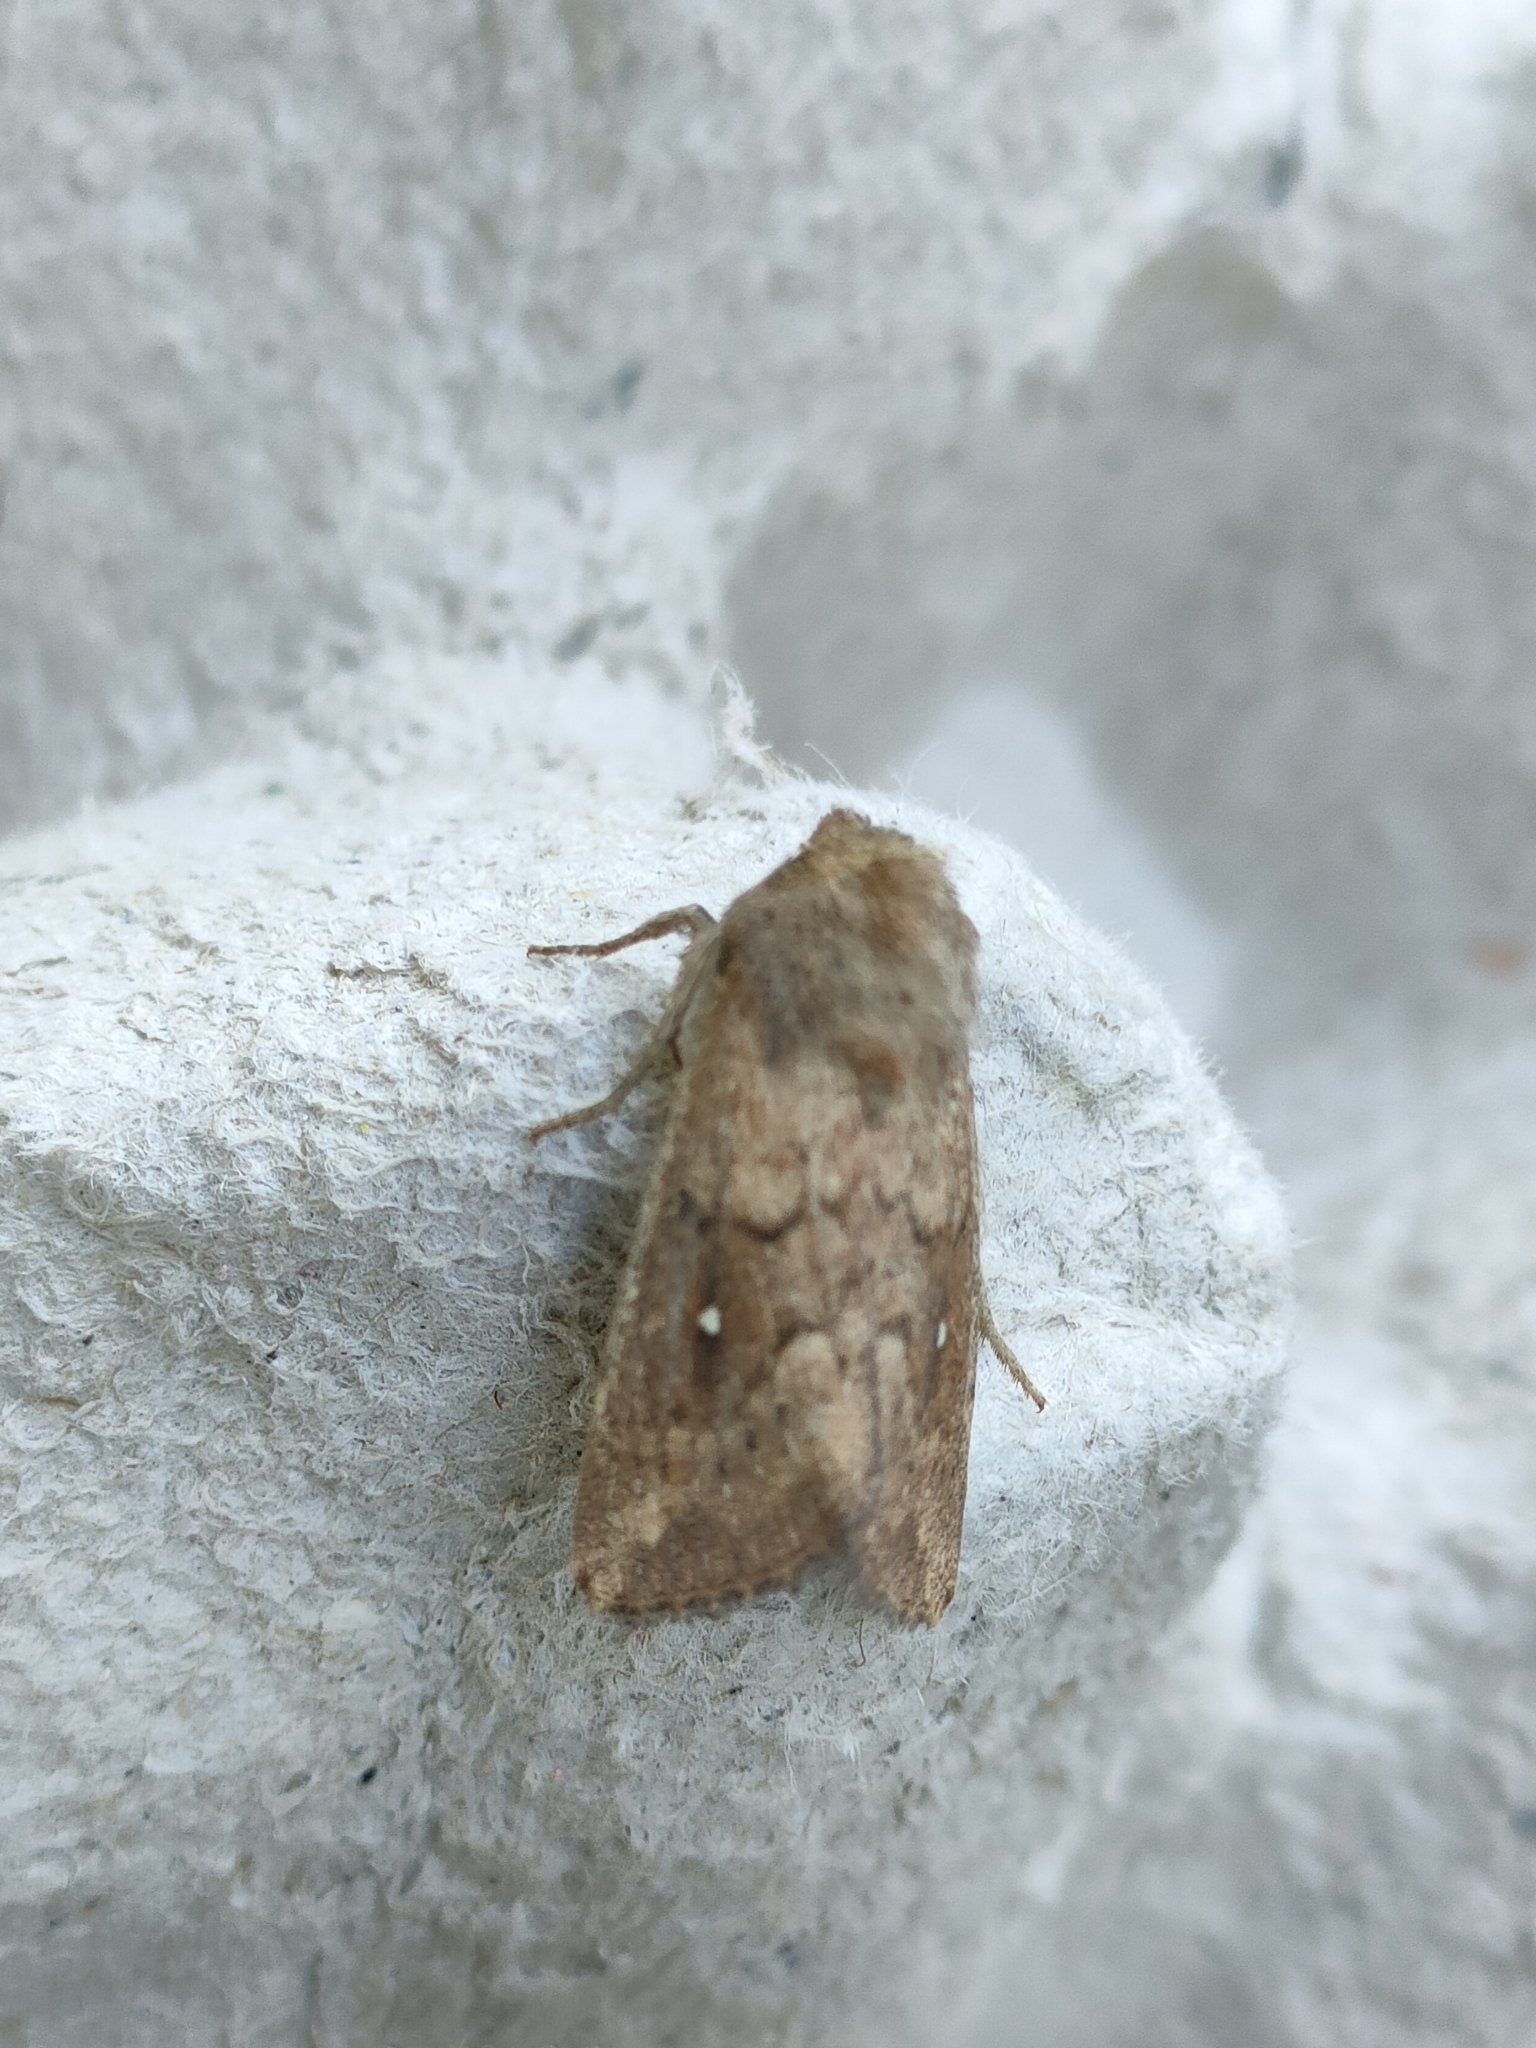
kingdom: Animalia
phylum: Arthropoda
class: Insecta
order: Lepidoptera
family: Noctuidae
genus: Mythimna
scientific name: Mythimna albipuncta
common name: White-point
